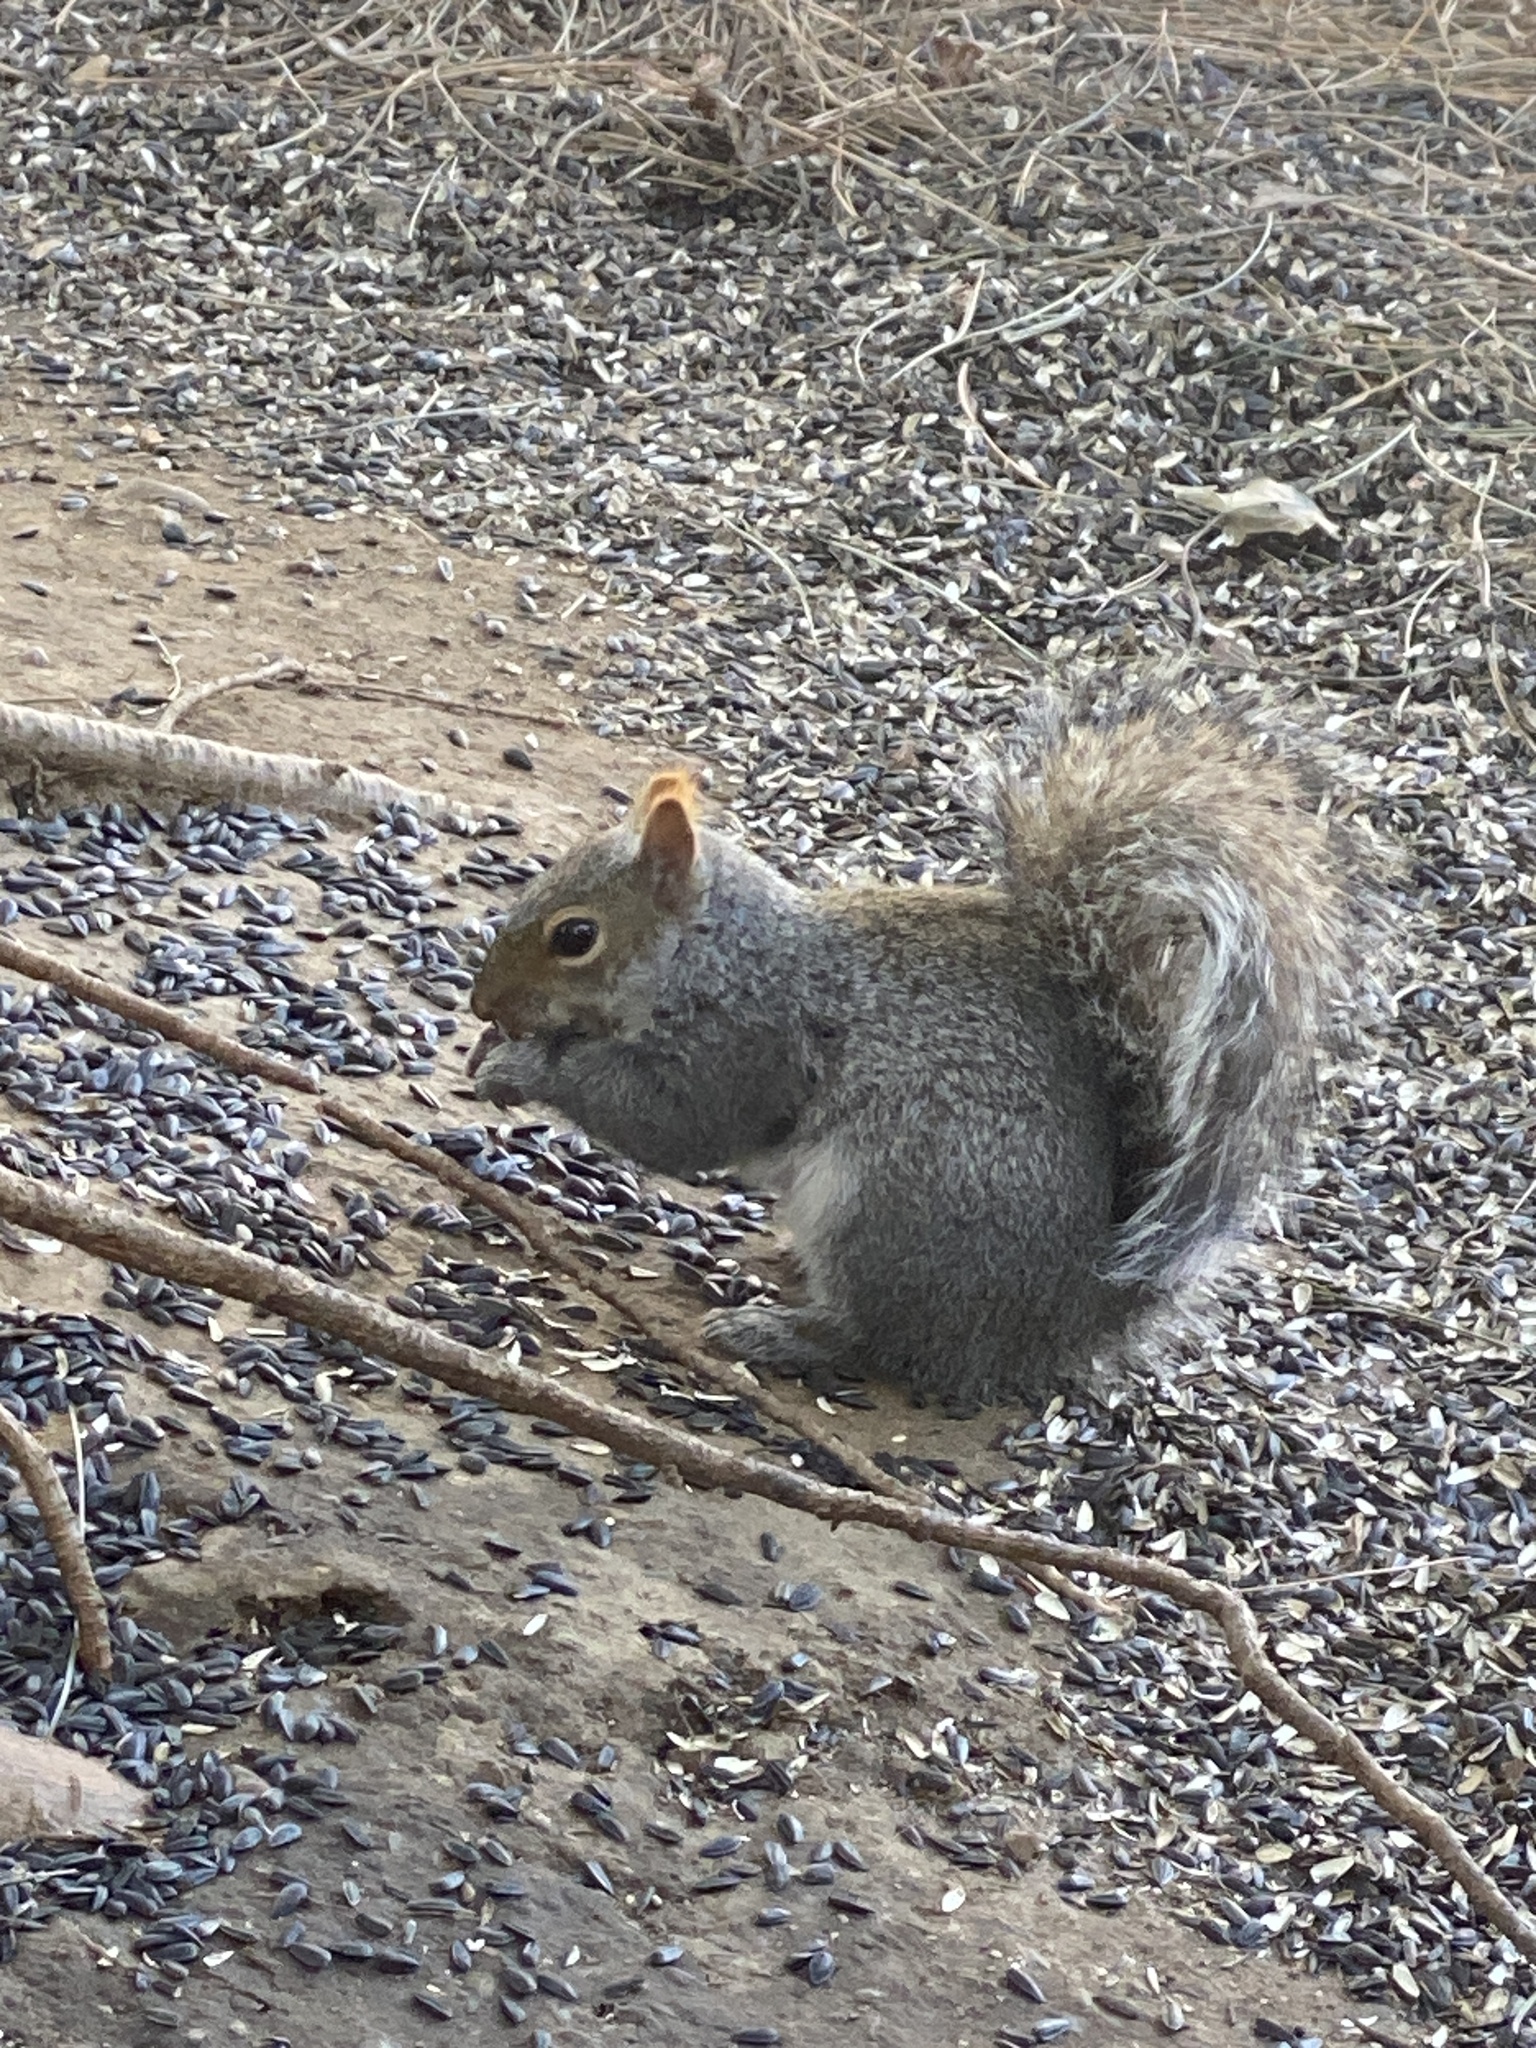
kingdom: Animalia
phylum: Chordata
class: Mammalia
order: Rodentia
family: Sciuridae
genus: Sciurus
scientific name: Sciurus carolinensis
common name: Eastern gray squirrel
